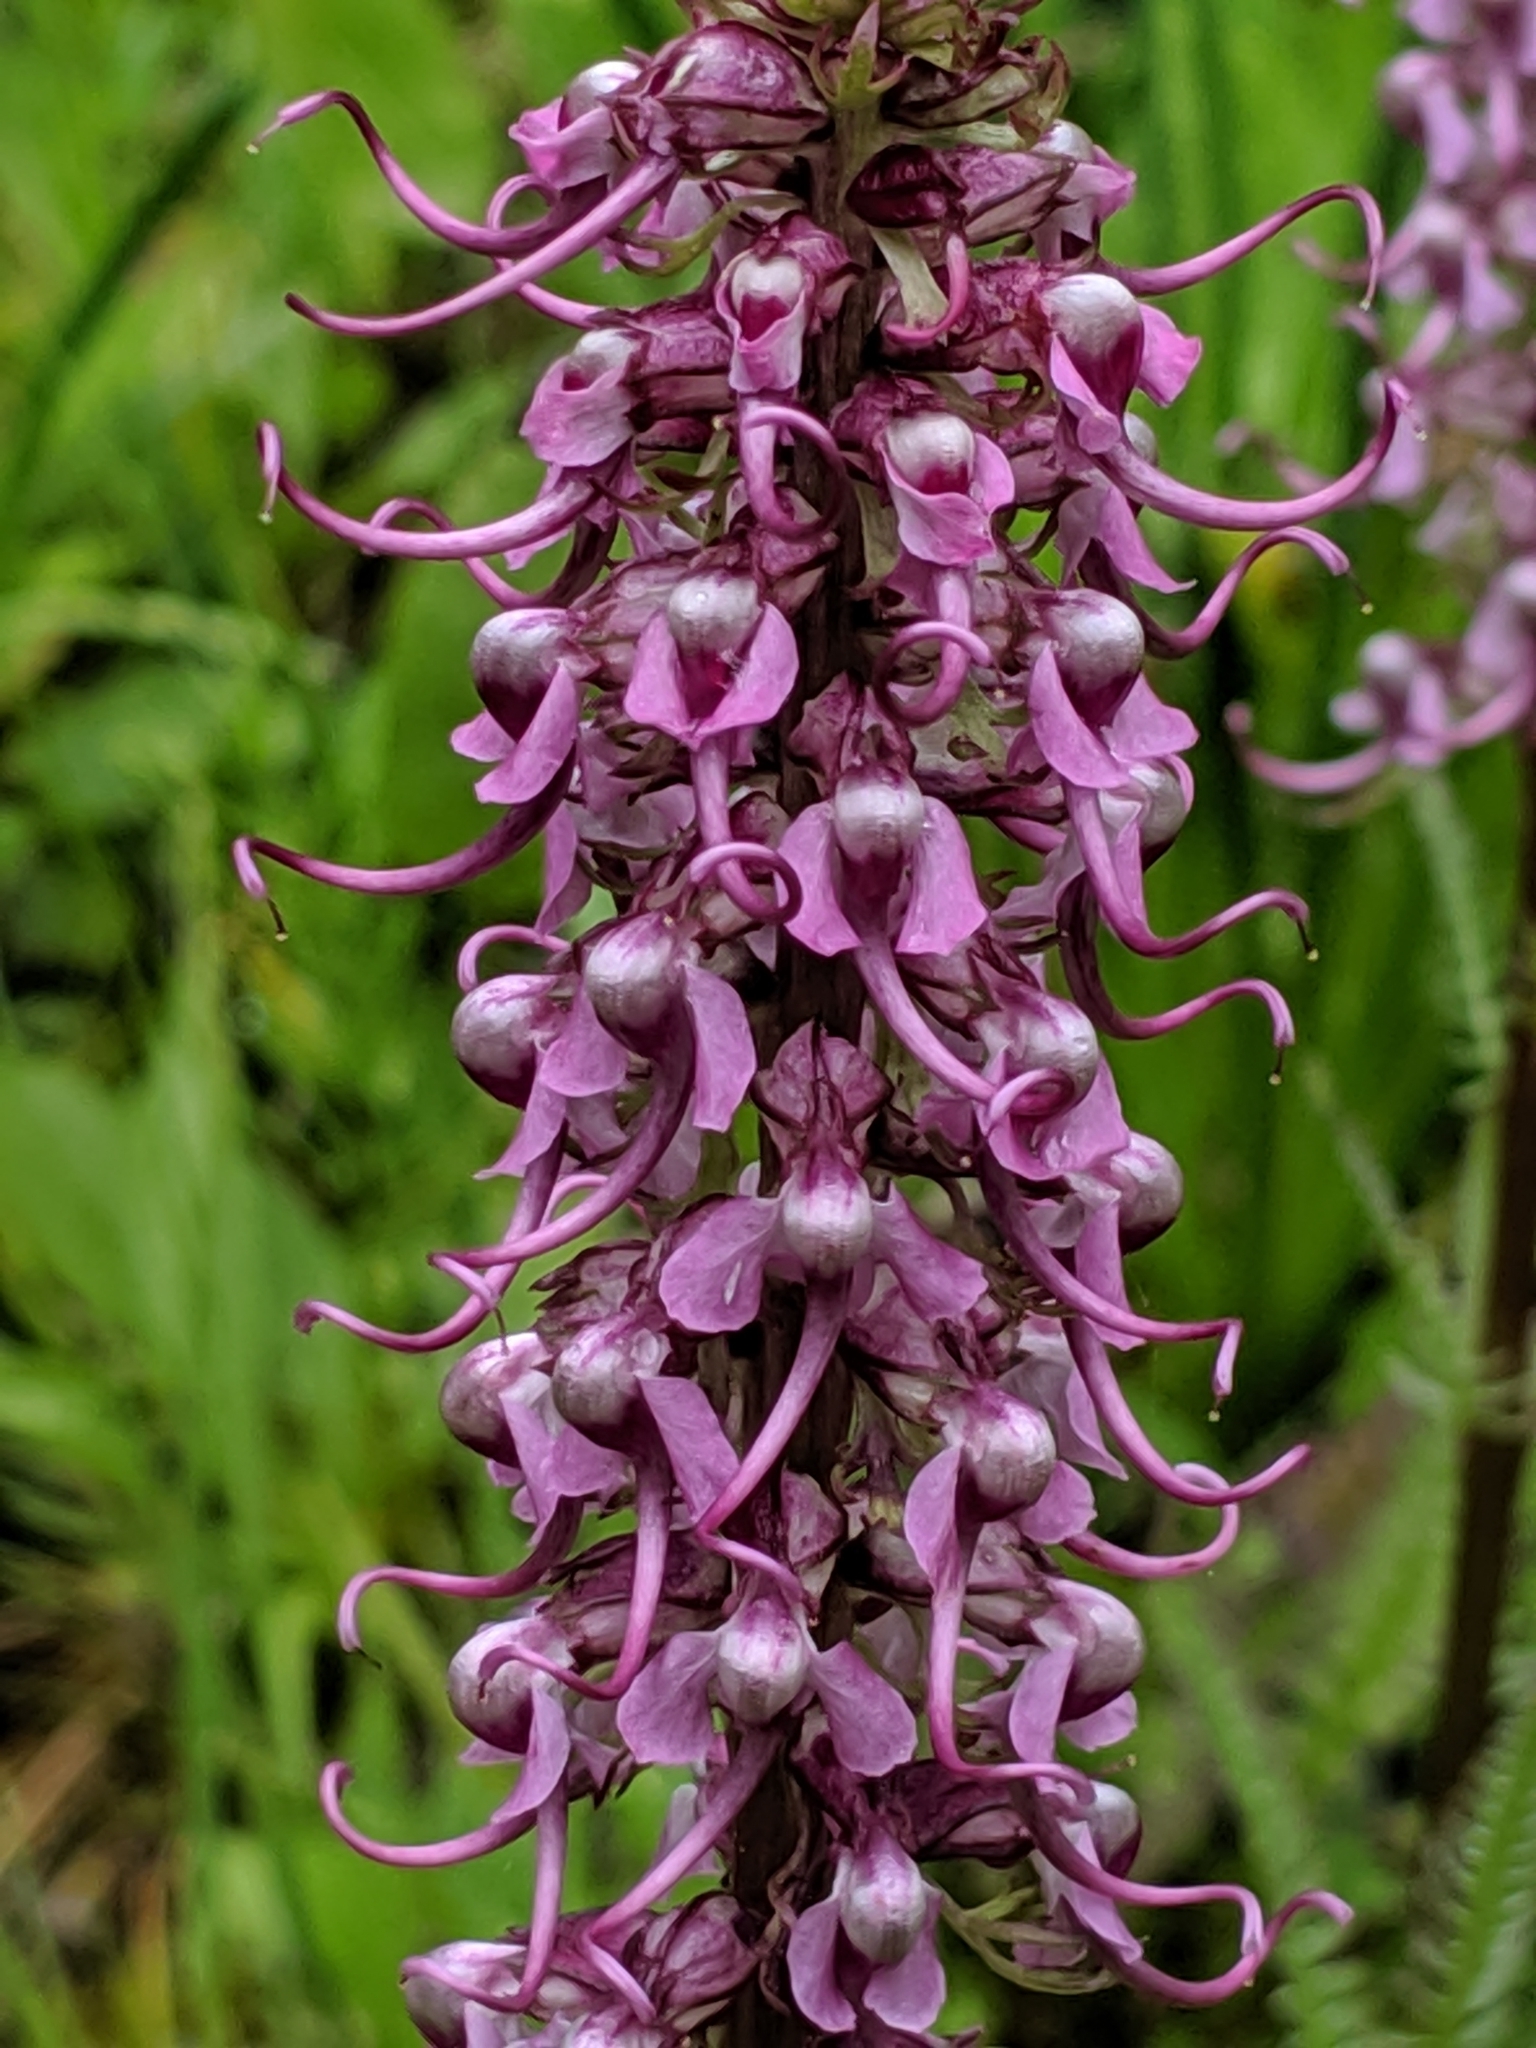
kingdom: Plantae
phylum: Tracheophyta
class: Magnoliopsida
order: Lamiales
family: Orobanchaceae
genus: Pedicularis
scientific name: Pedicularis groenlandica
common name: Elephant's-head
